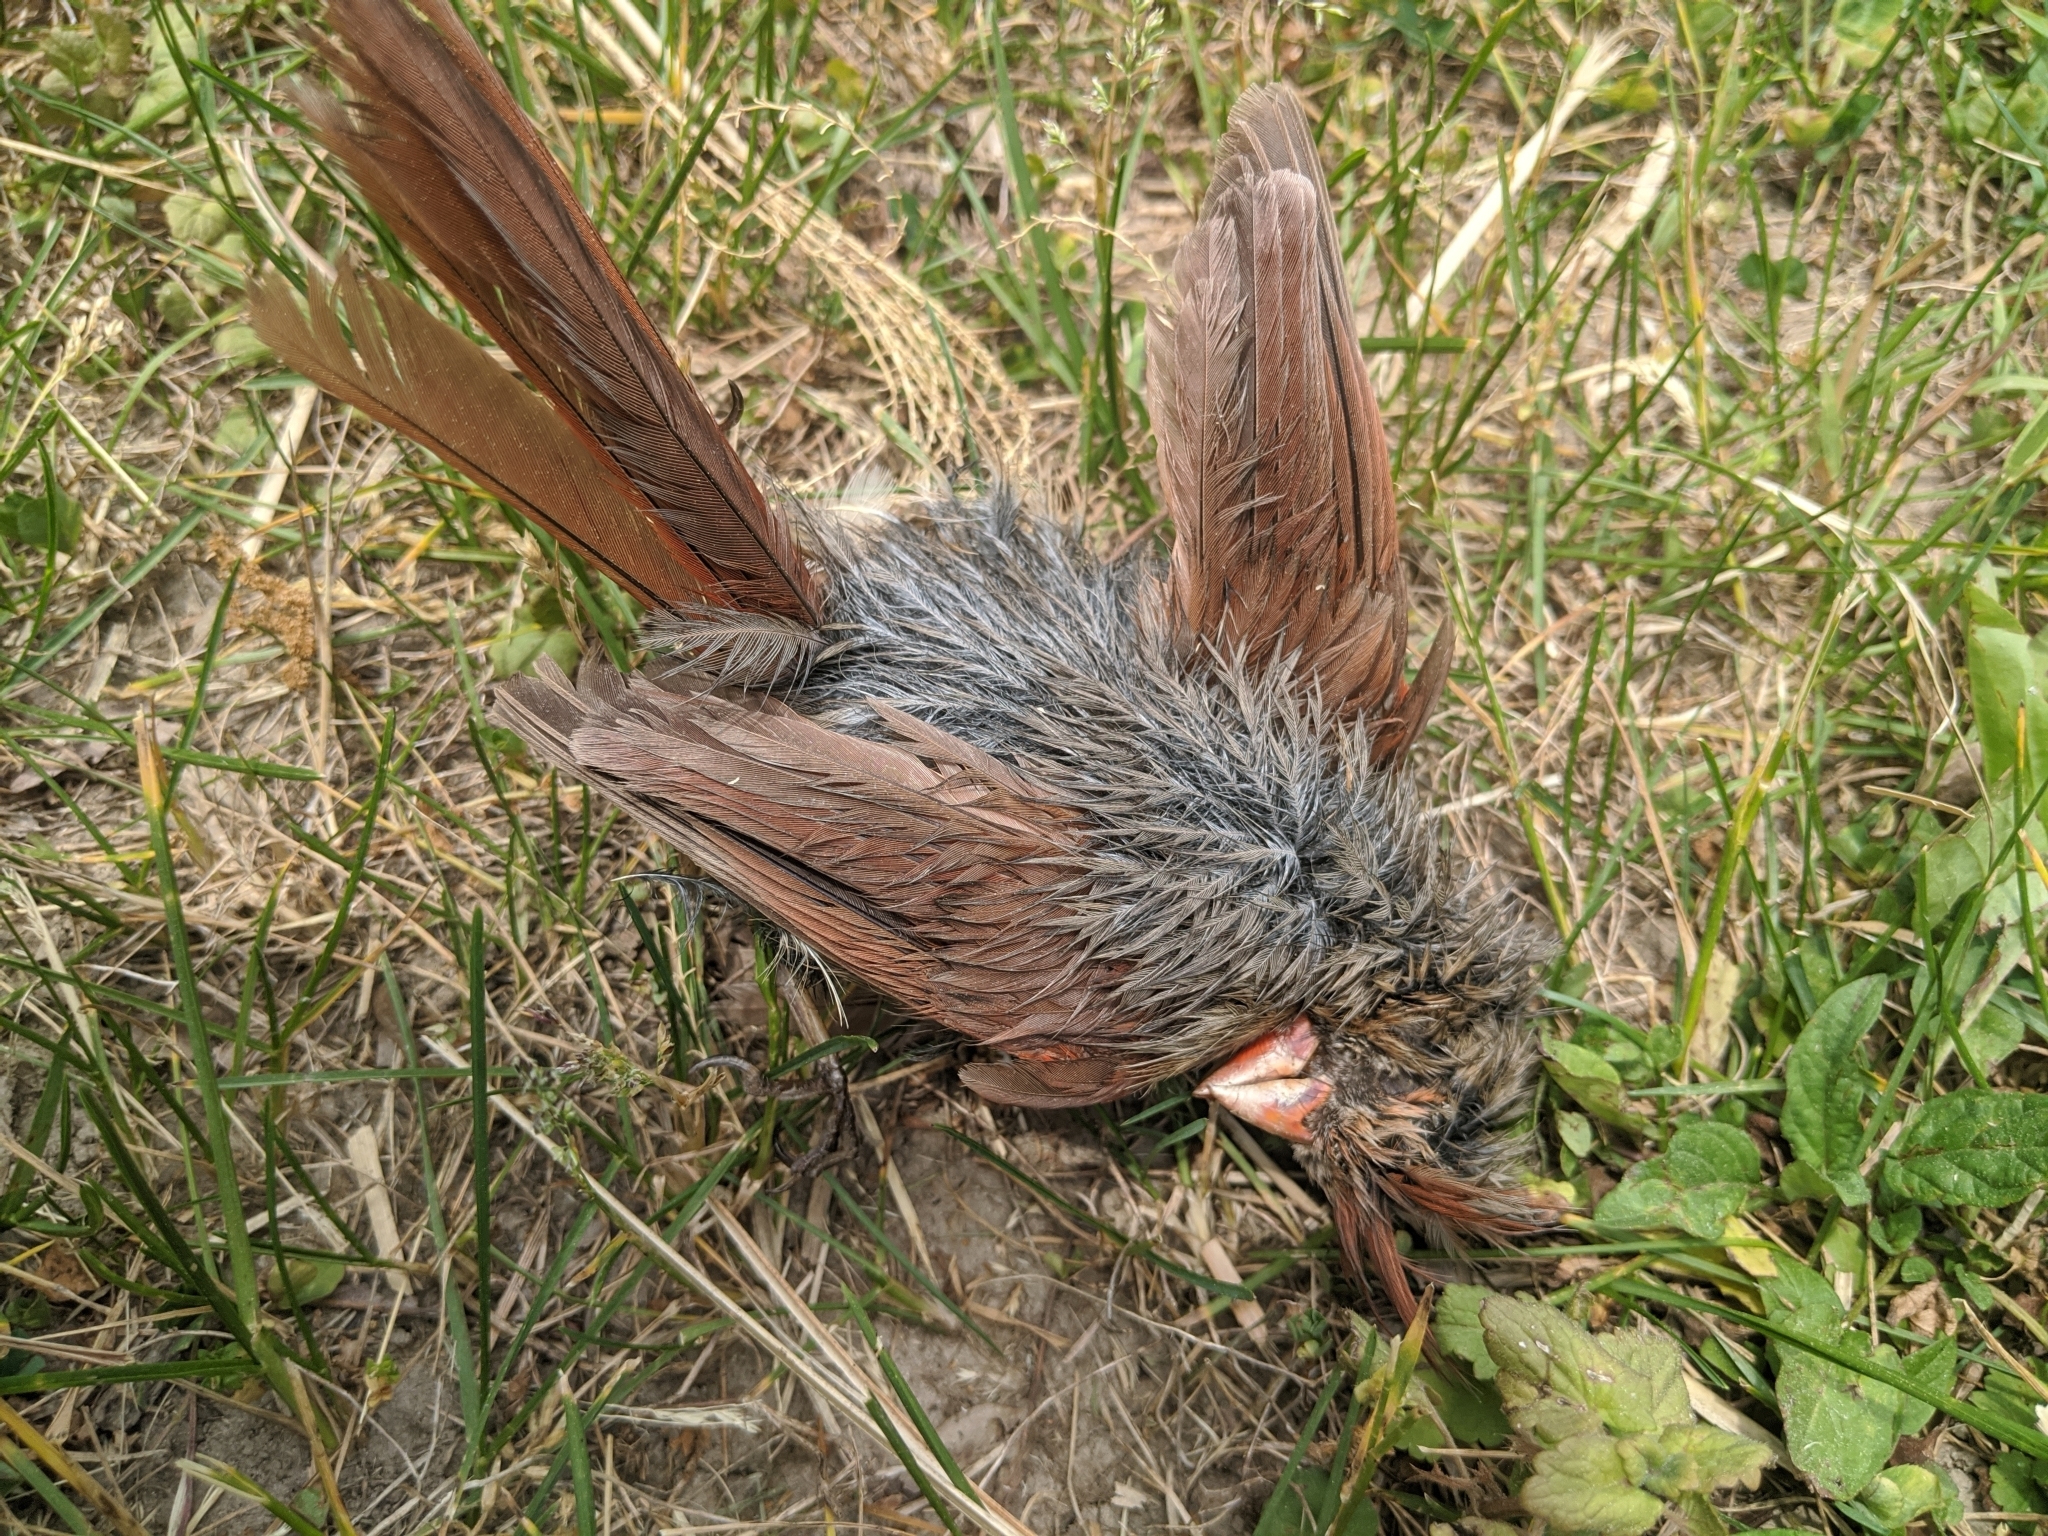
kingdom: Animalia
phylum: Chordata
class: Aves
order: Passeriformes
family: Cardinalidae
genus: Cardinalis
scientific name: Cardinalis cardinalis
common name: Northern cardinal
